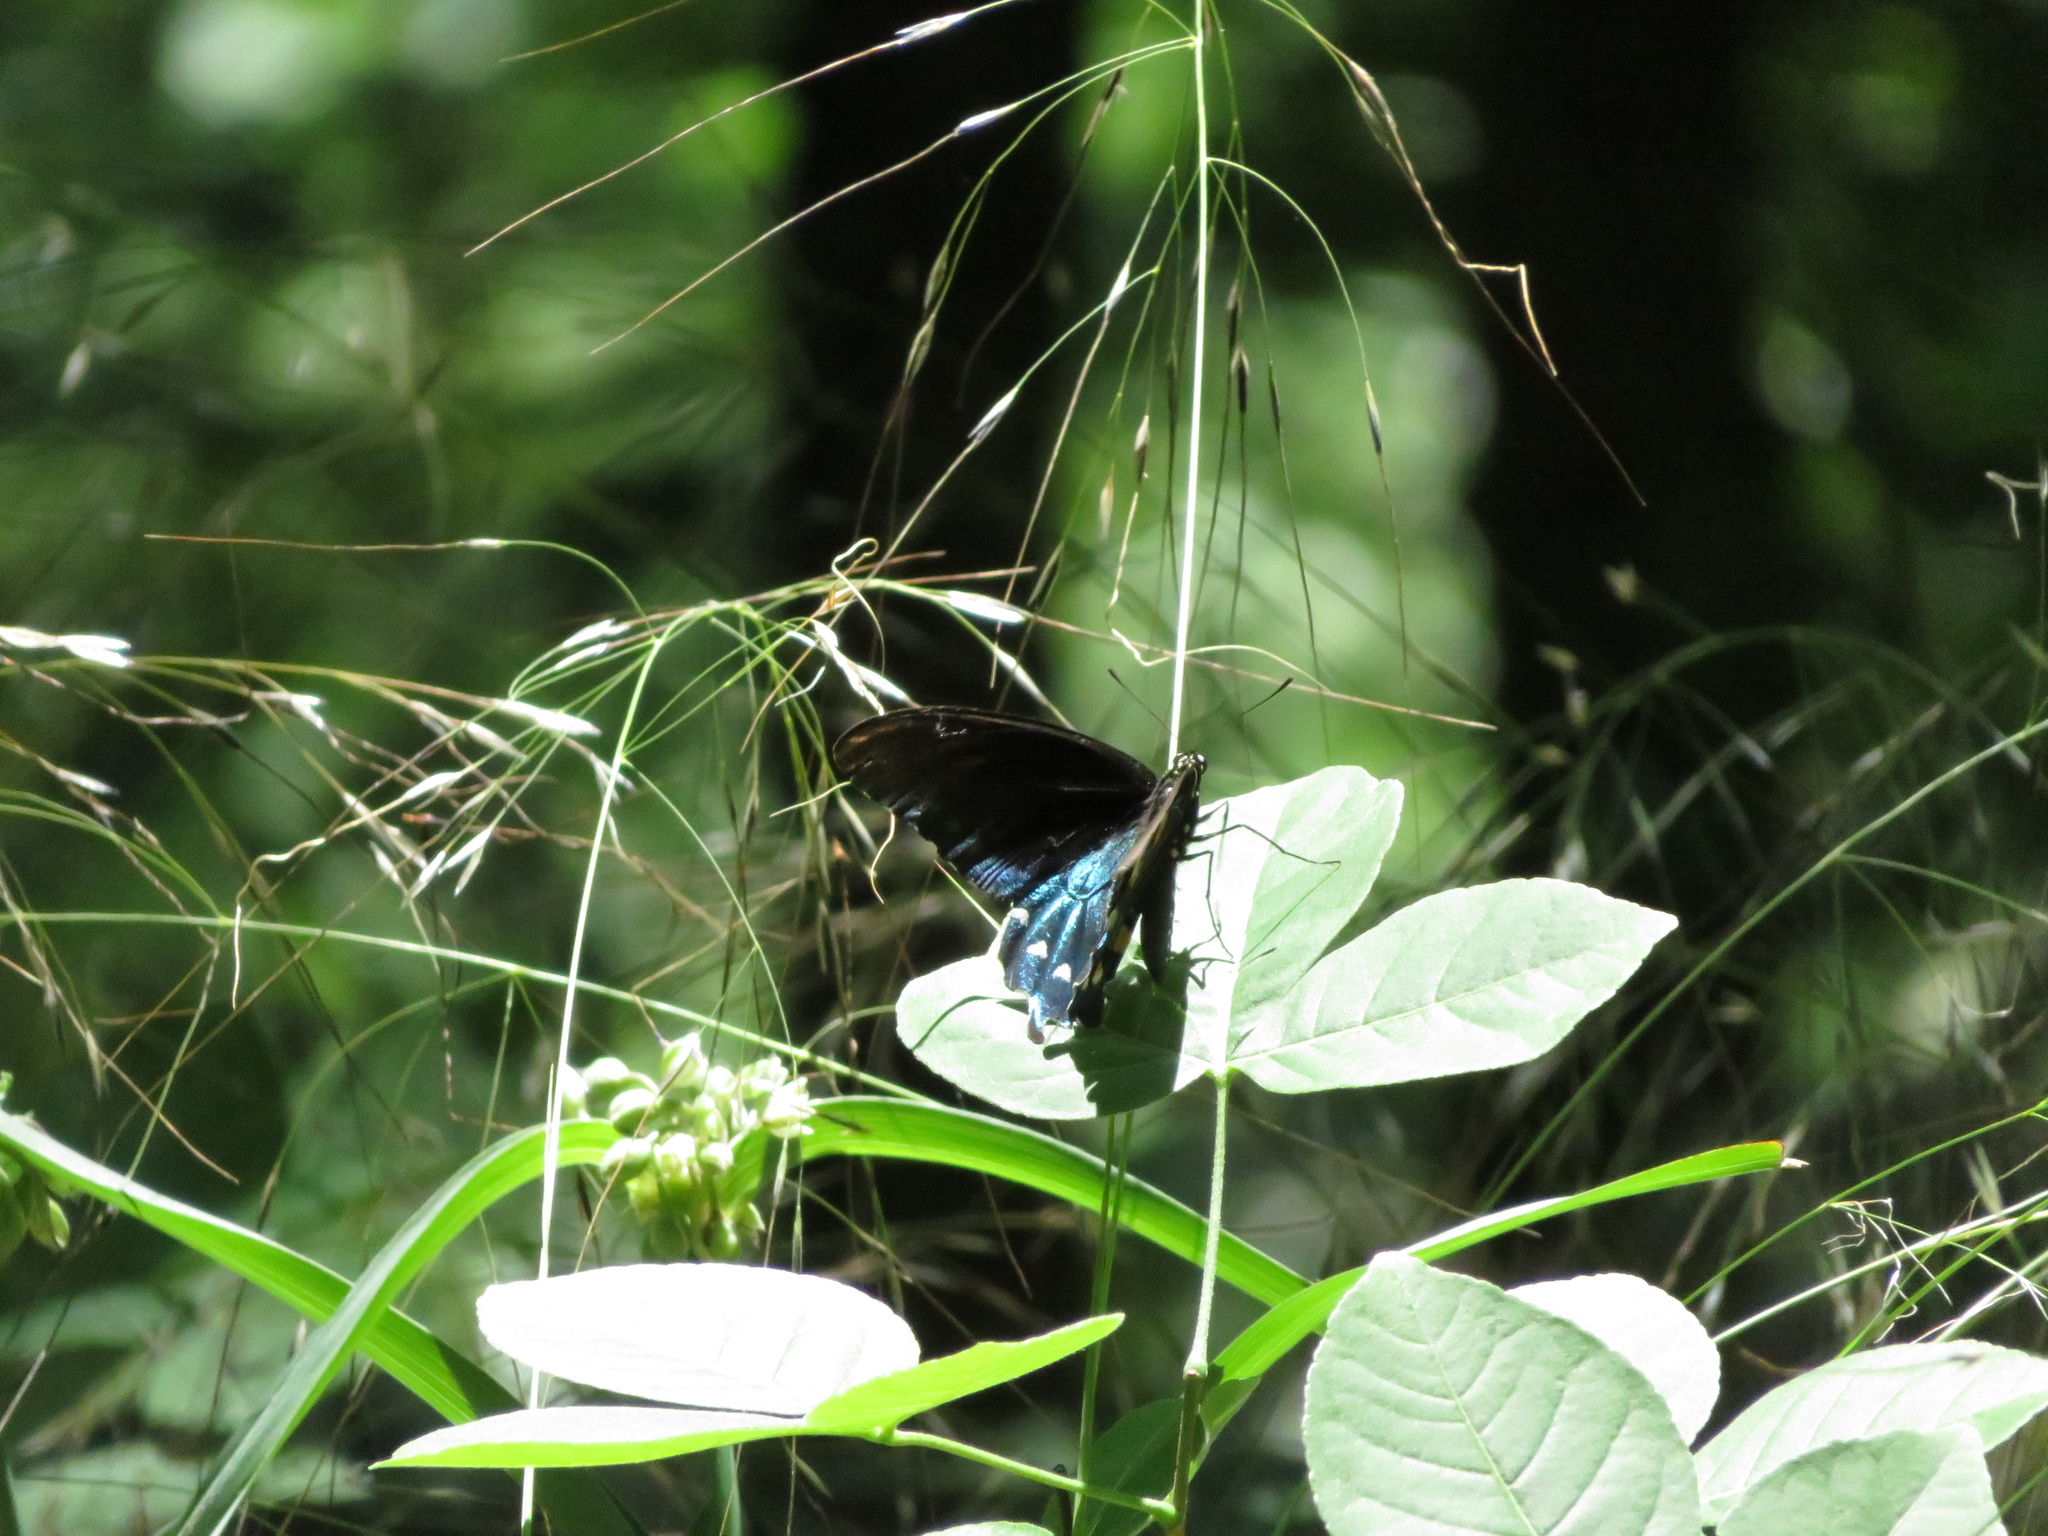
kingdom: Animalia
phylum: Arthropoda
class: Insecta
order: Lepidoptera
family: Papilionidae
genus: Battus
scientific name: Battus philenor
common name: Pipevine swallowtail
